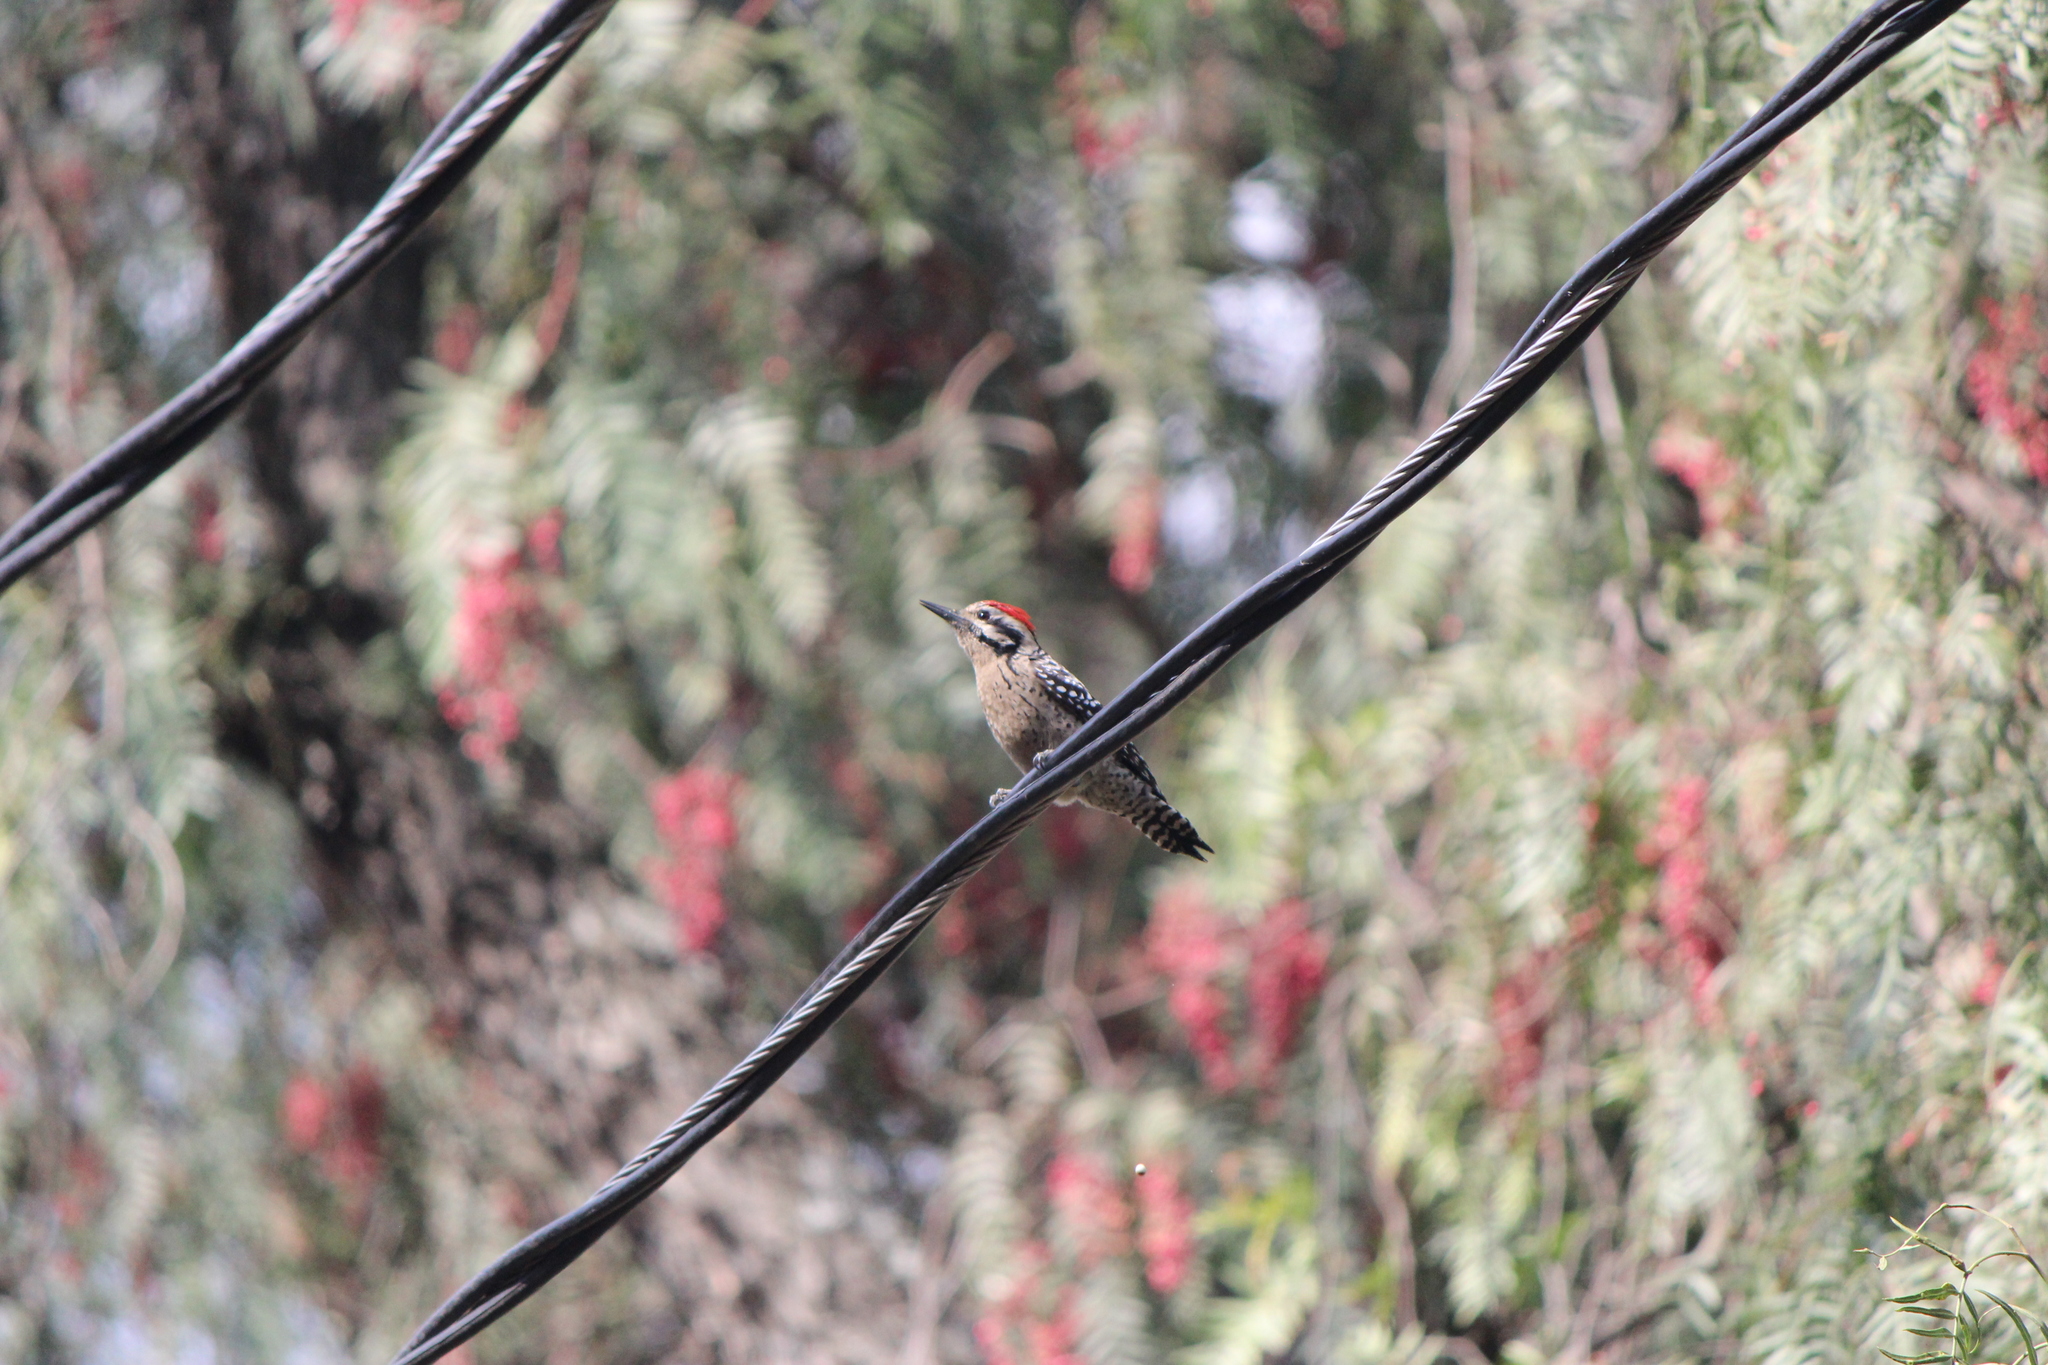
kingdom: Animalia
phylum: Chordata
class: Aves
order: Piciformes
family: Picidae
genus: Dryobates
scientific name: Dryobates scalaris
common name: Ladder-backed woodpecker
